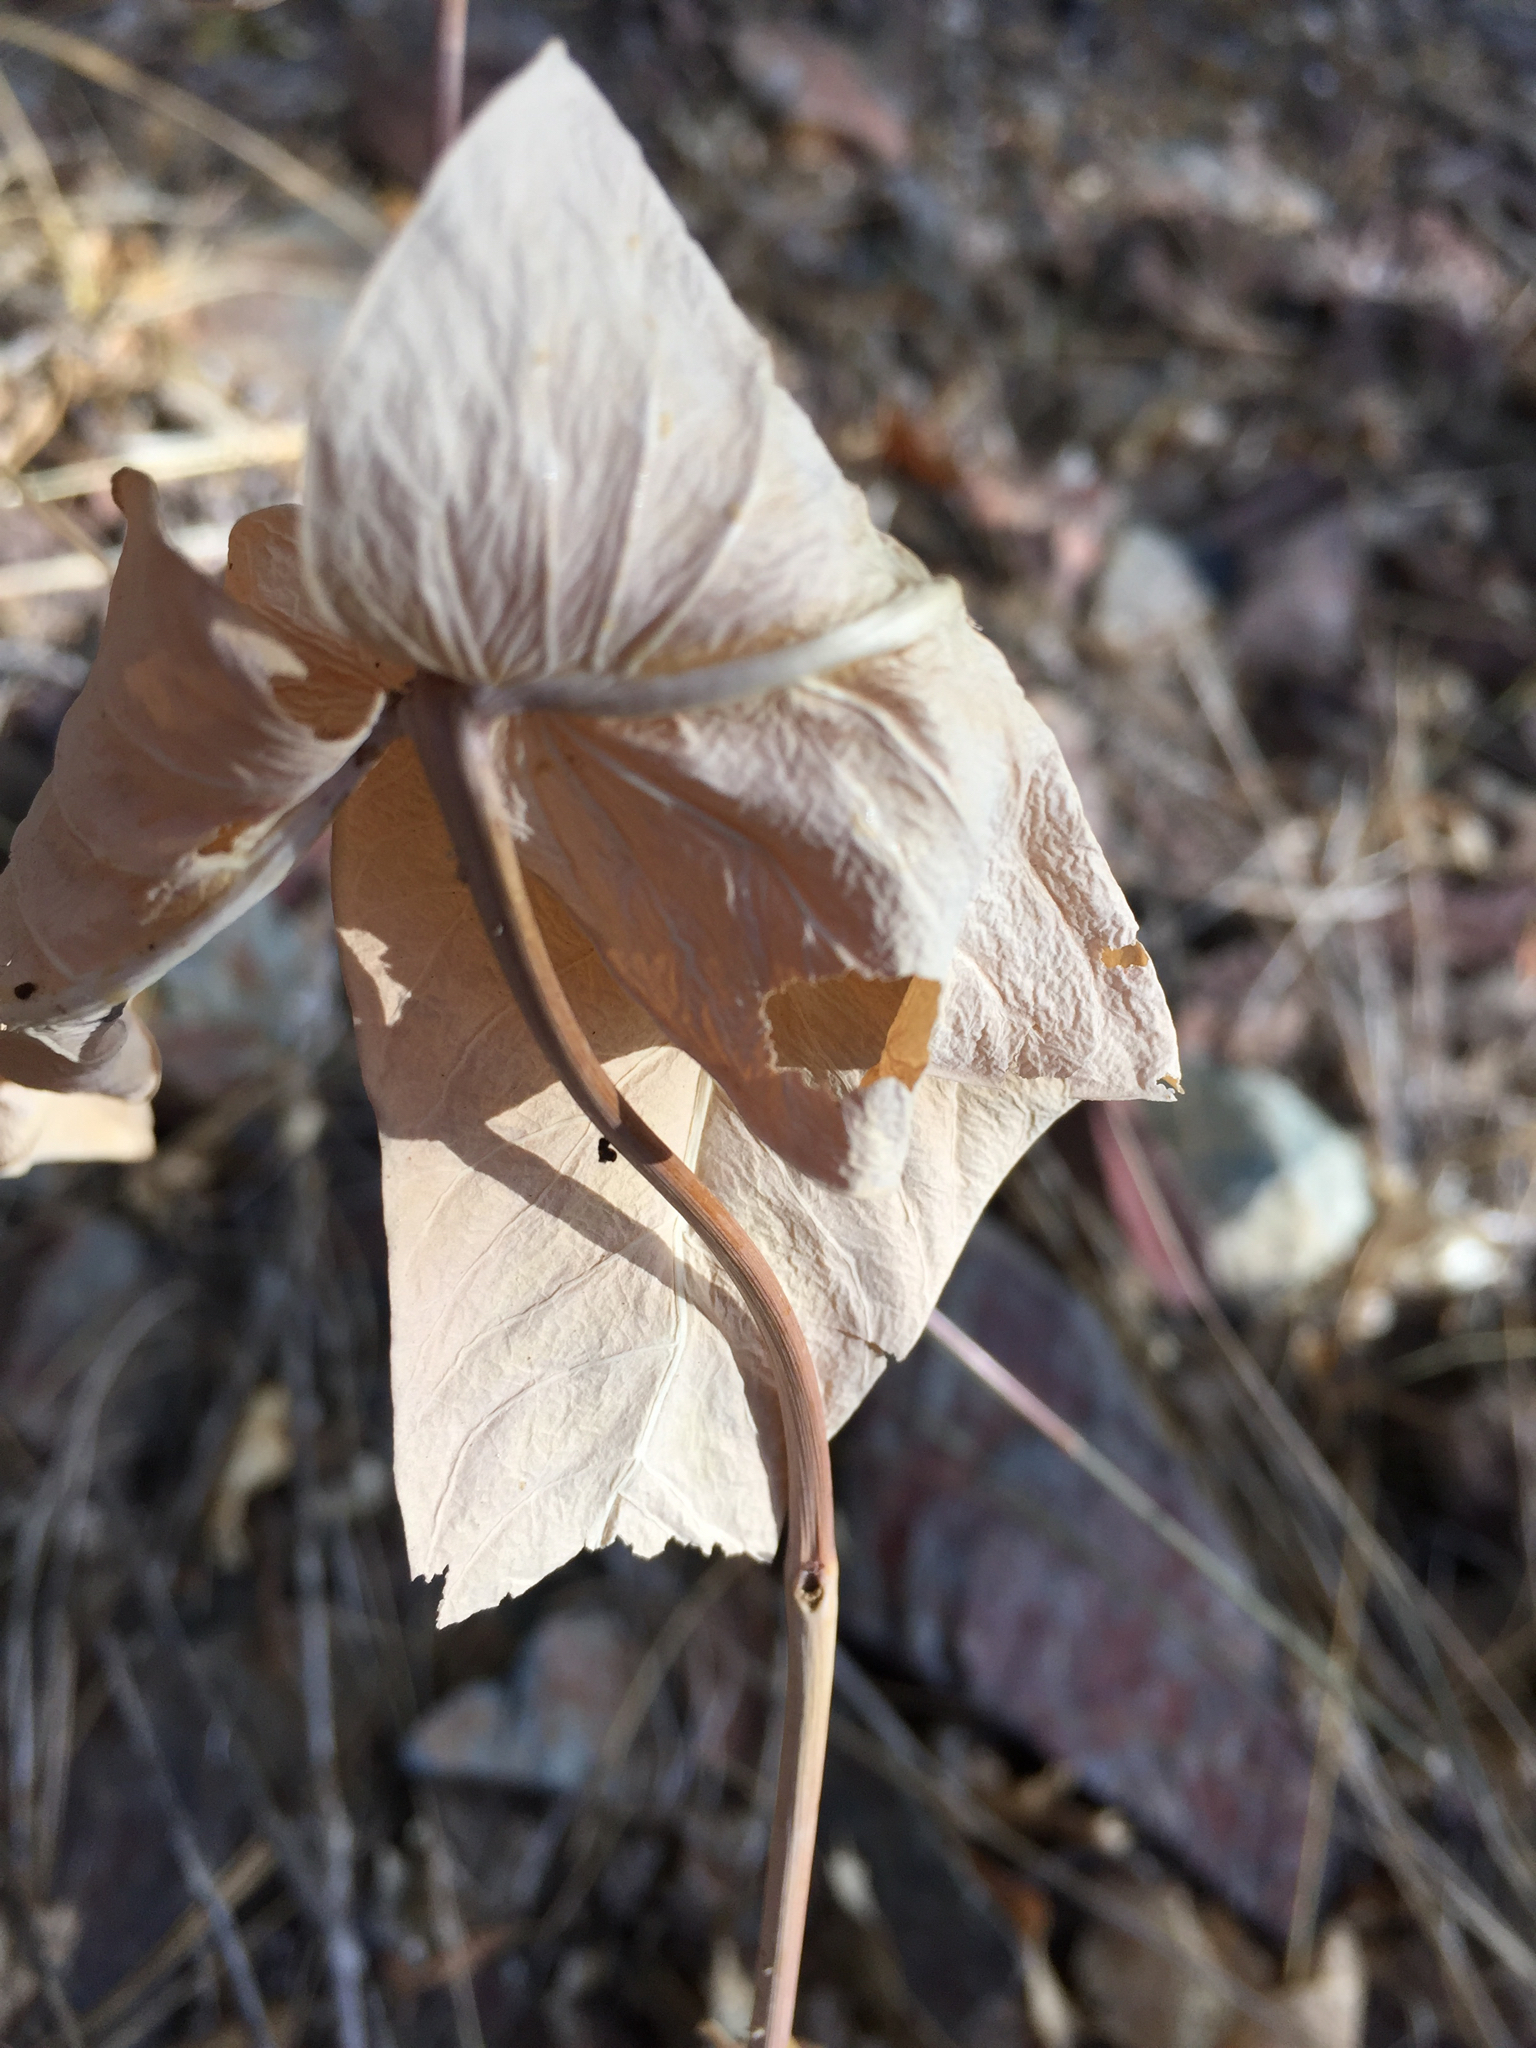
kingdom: Plantae
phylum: Tracheophyta
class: Magnoliopsida
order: Gentianales
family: Apocynaceae
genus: Asclepias
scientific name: Asclepias cordifolia
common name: Purple milkweed
